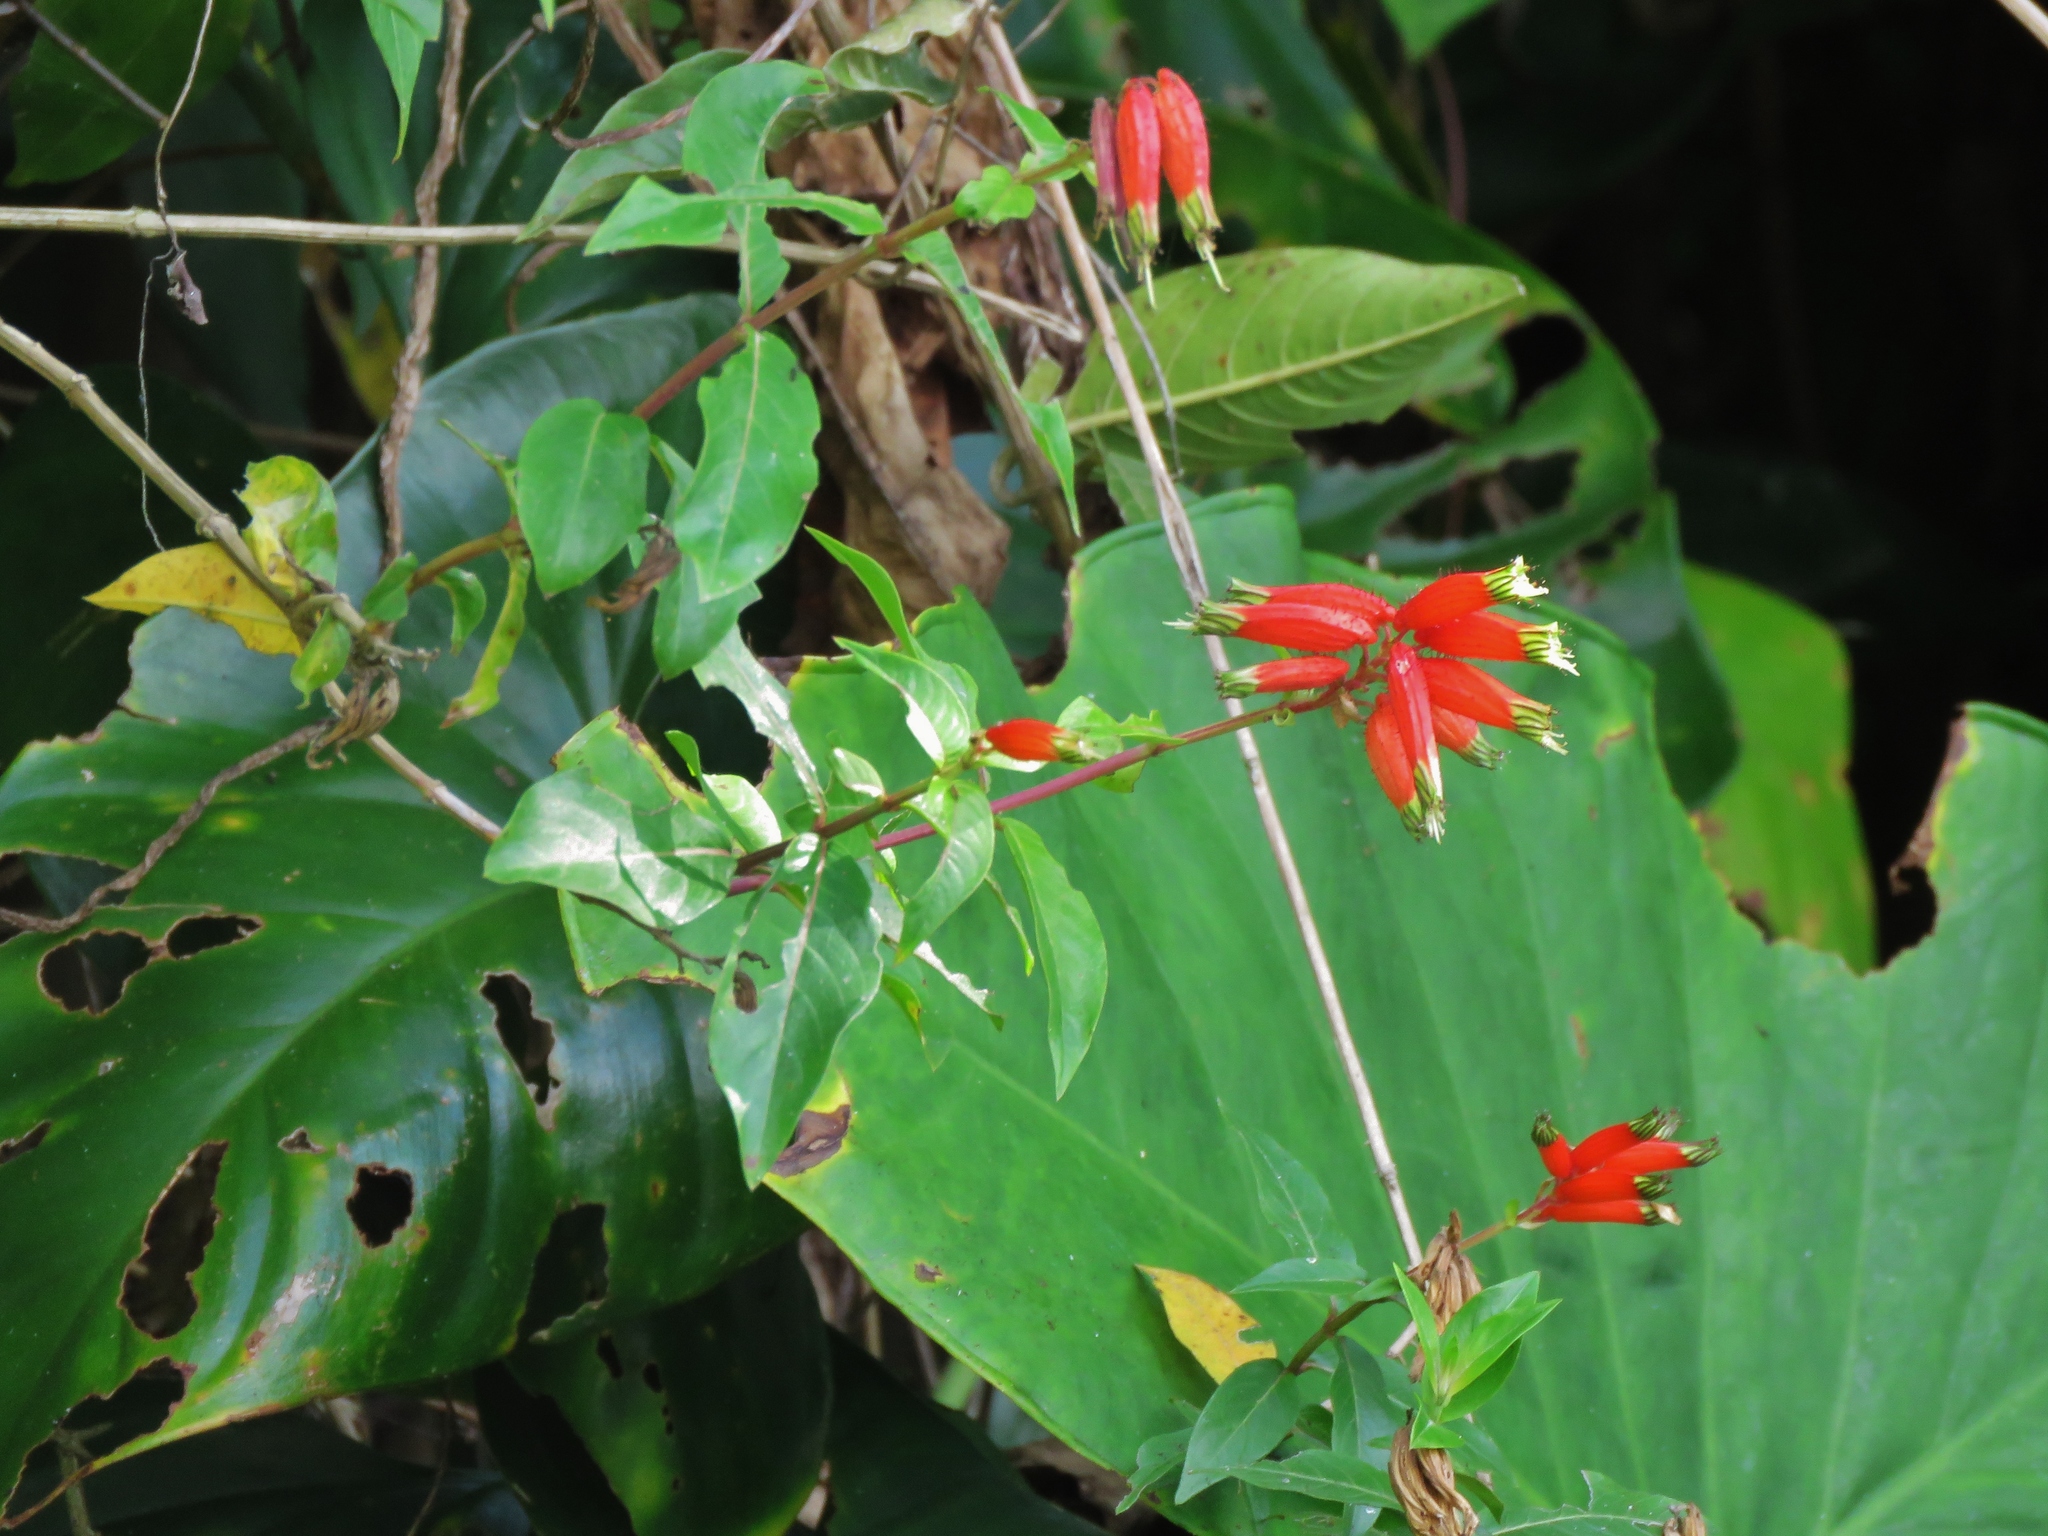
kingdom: Plantae
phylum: Tracheophyta
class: Magnoliopsida
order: Myrtales
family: Lythraceae
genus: Cuphea
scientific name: Cuphea melvilla
